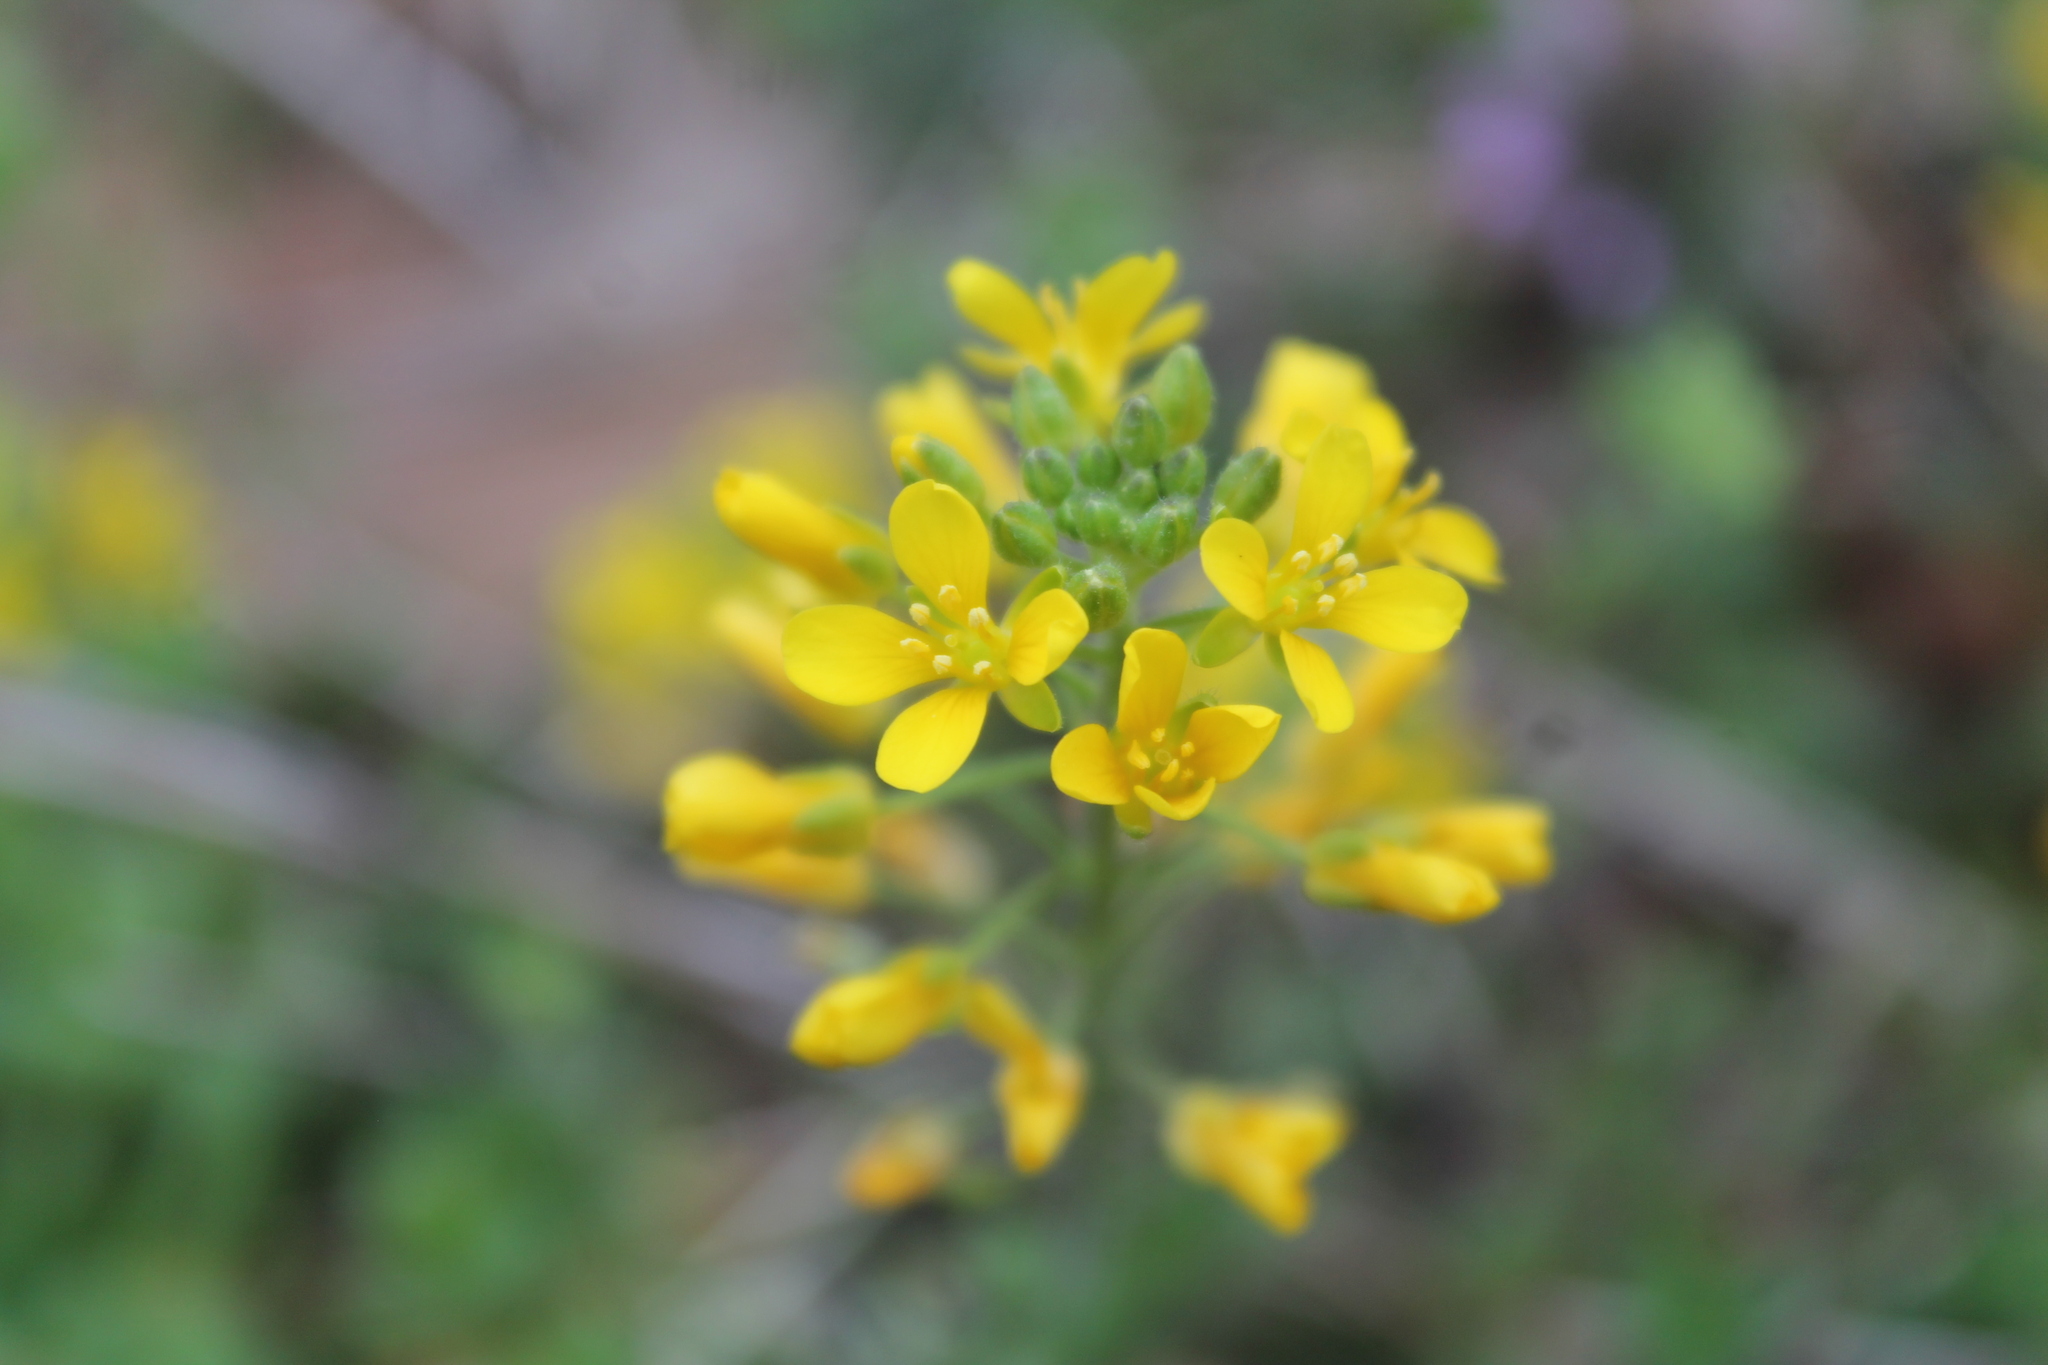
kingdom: Plantae
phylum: Tracheophyta
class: Magnoliopsida
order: Brassicales
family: Brassicaceae
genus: Paysonia
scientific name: Paysonia lescurii
